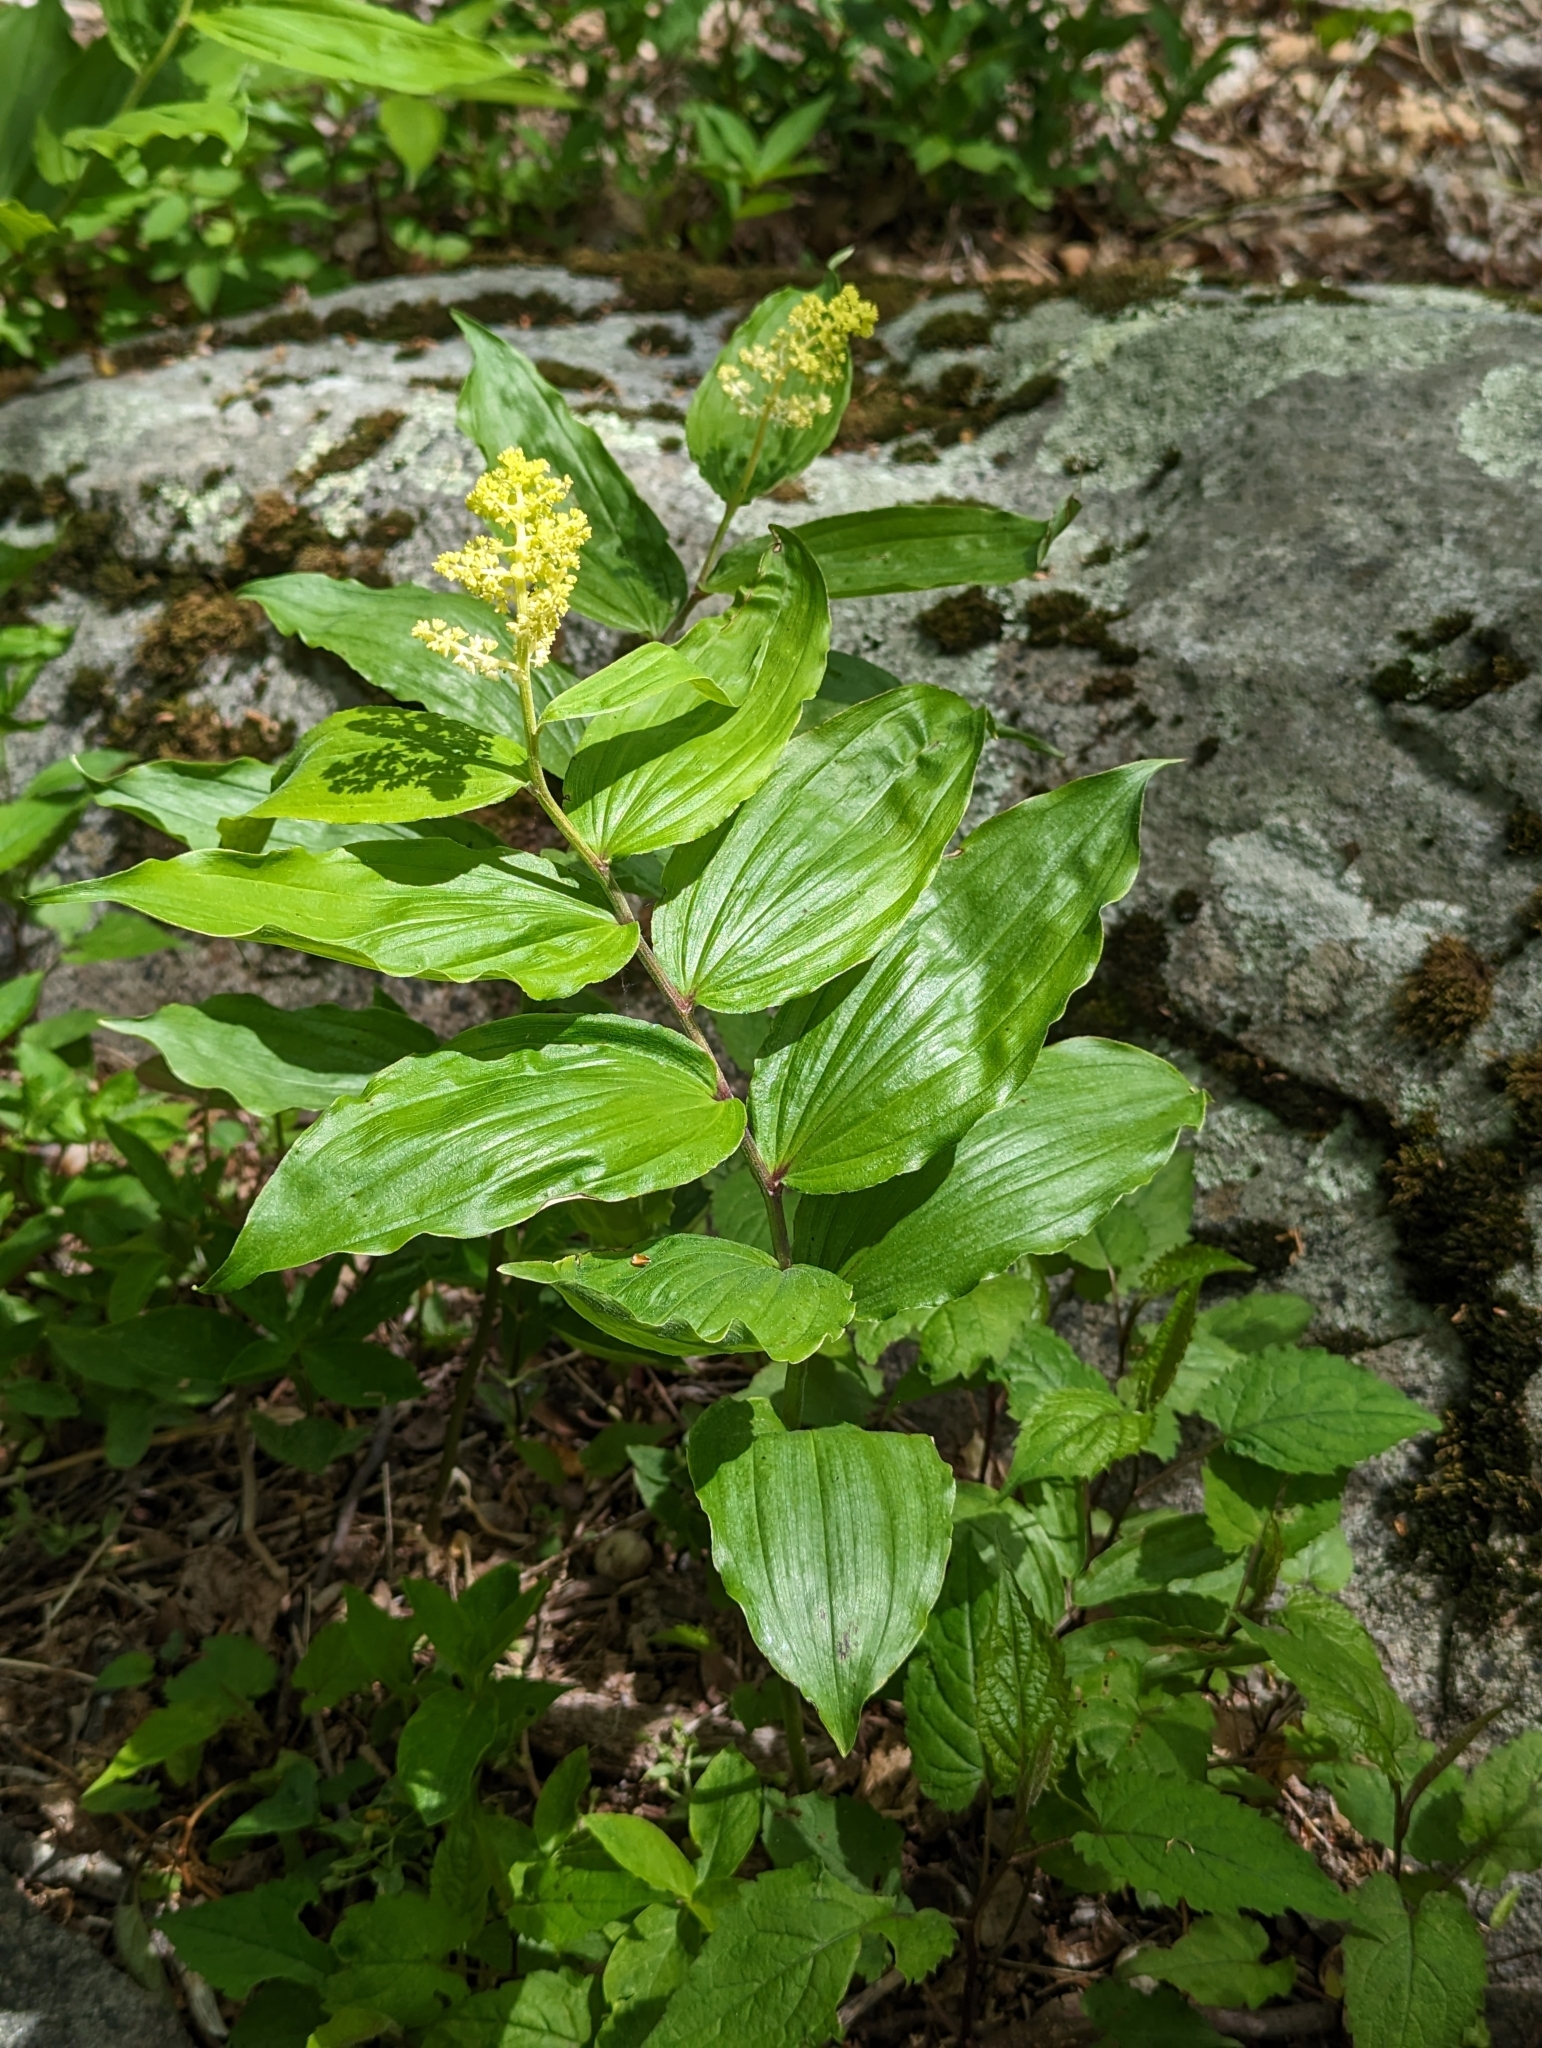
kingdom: Plantae
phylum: Tracheophyta
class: Liliopsida
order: Asparagales
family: Asparagaceae
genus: Maianthemum
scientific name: Maianthemum racemosum
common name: False spikenard
